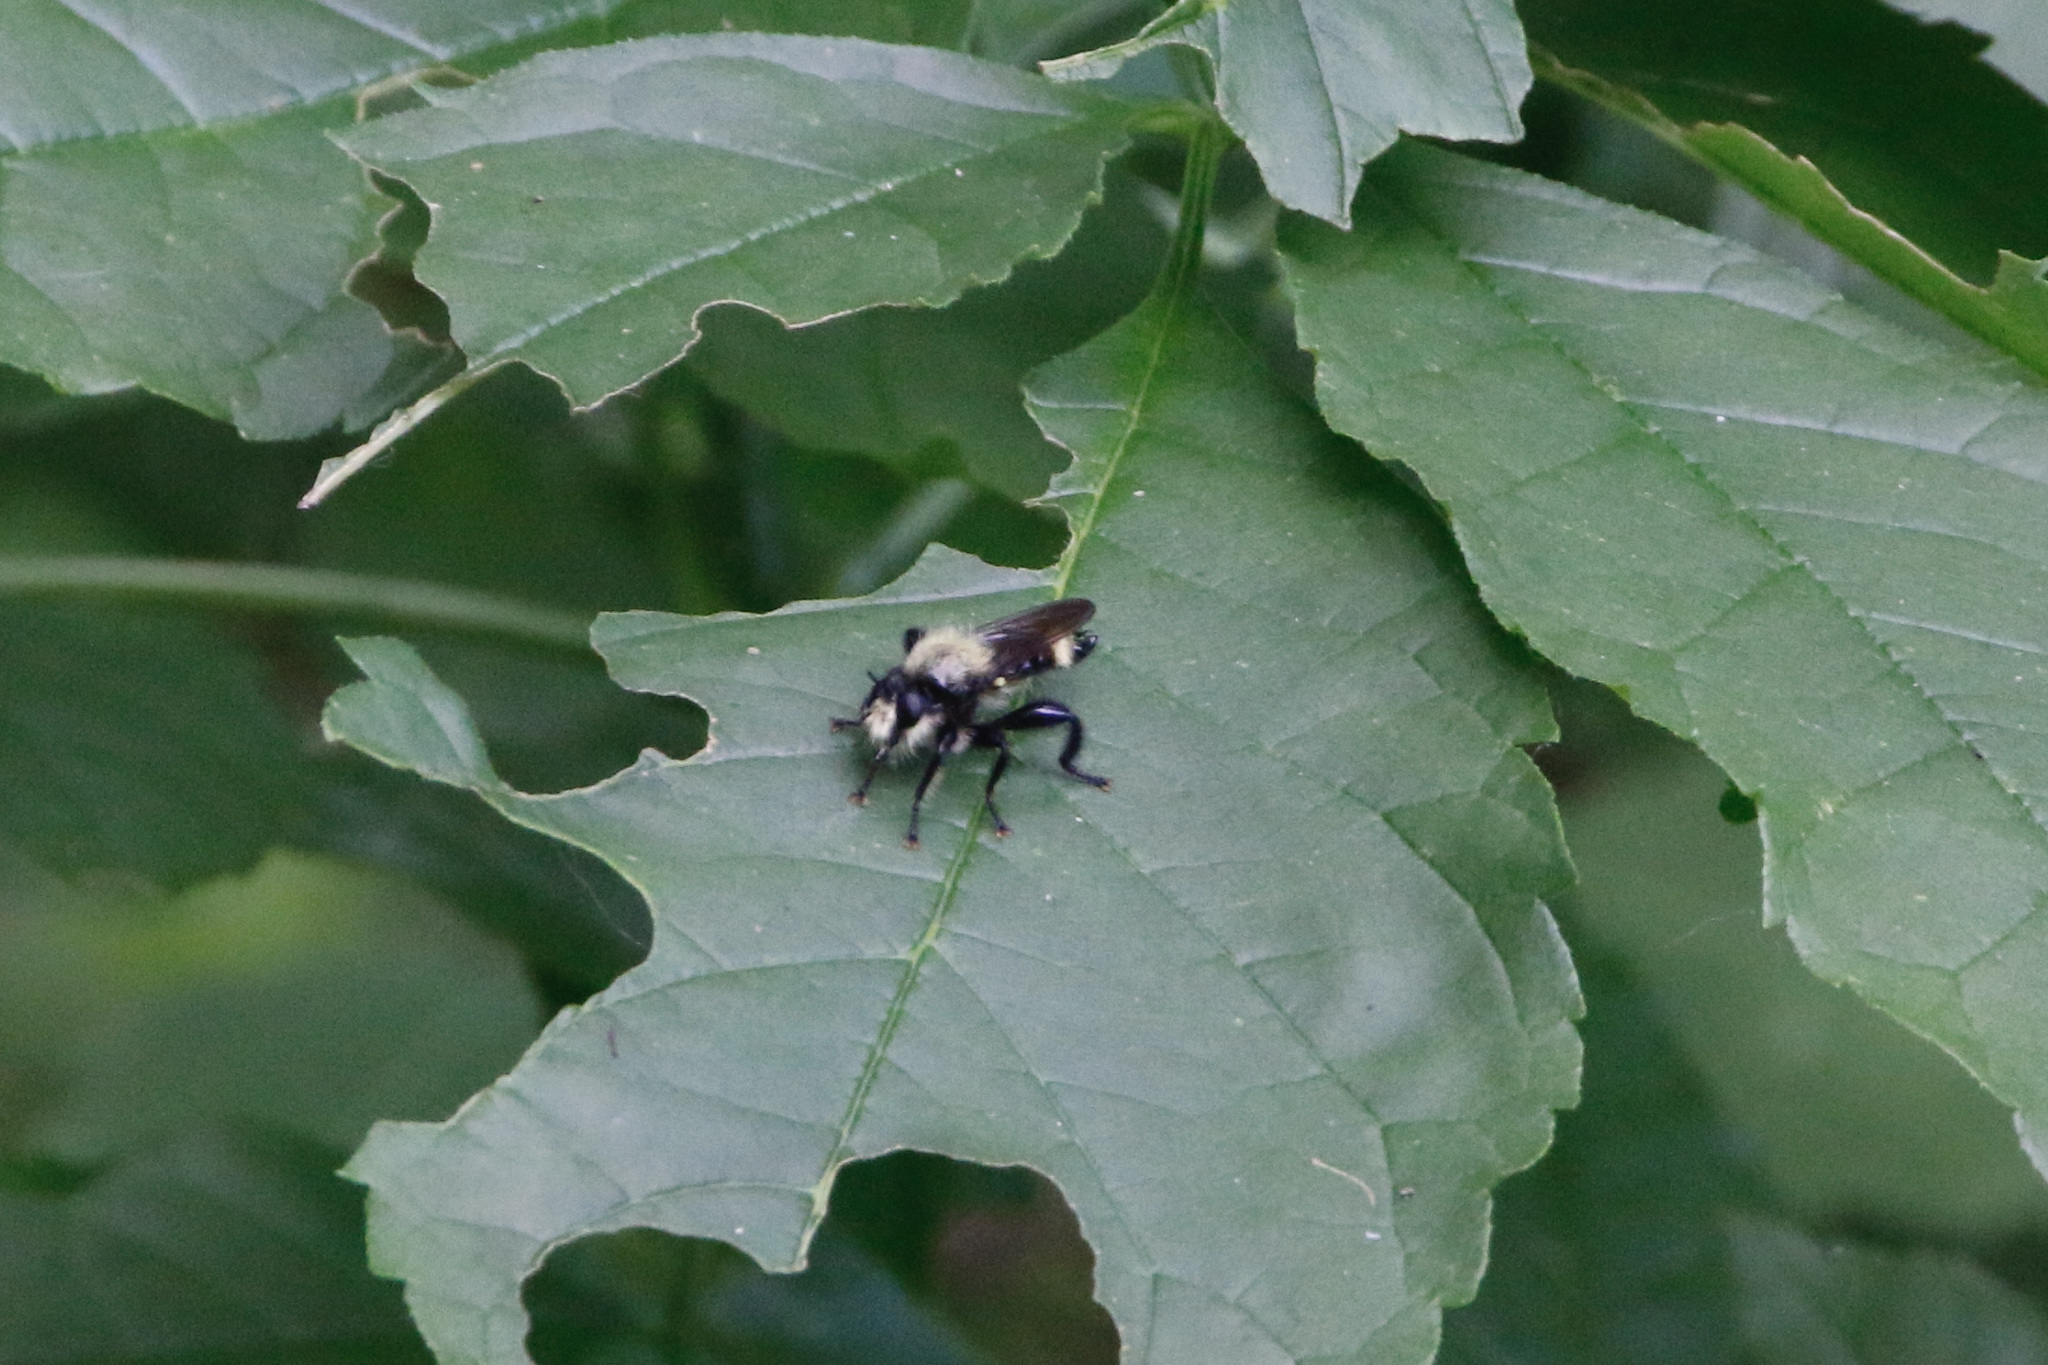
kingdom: Animalia
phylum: Arthropoda
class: Insecta
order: Diptera
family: Asilidae
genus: Laphria
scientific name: Laphria divisor
